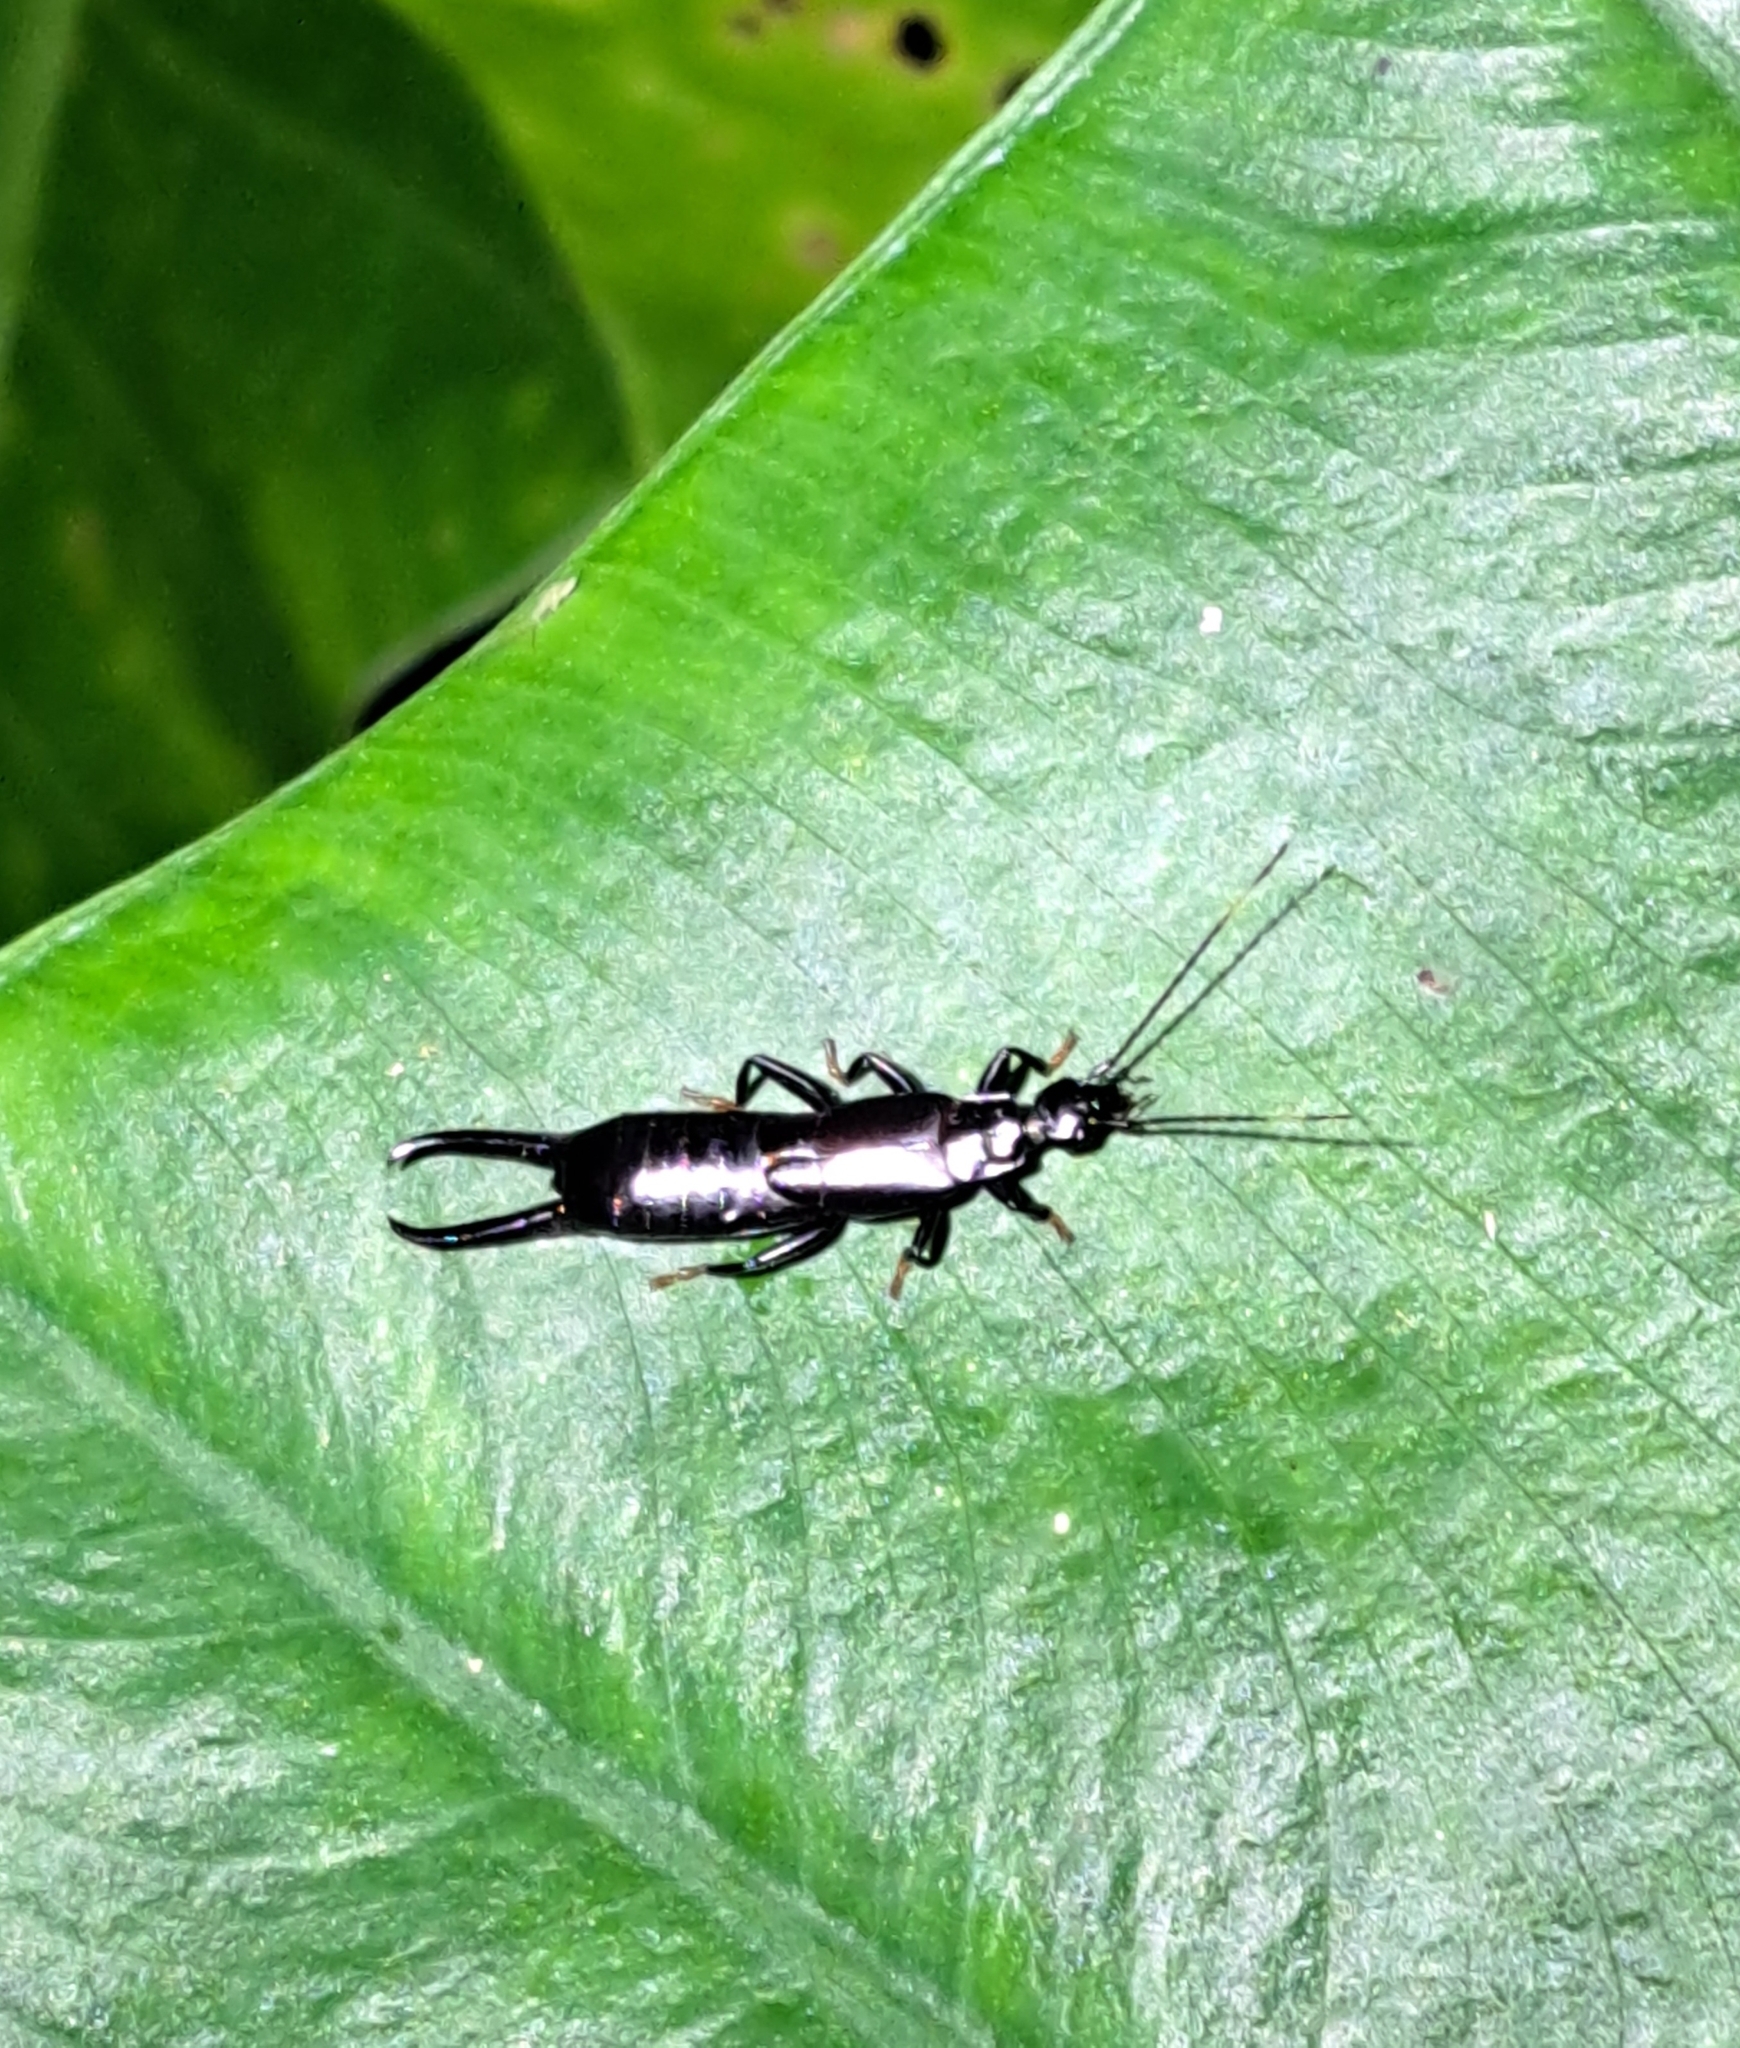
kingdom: Animalia
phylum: Arthropoda
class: Insecta
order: Dermaptera
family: Chelisochidae
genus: Chelisoches
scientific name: Chelisoches morio
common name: Black earwig
